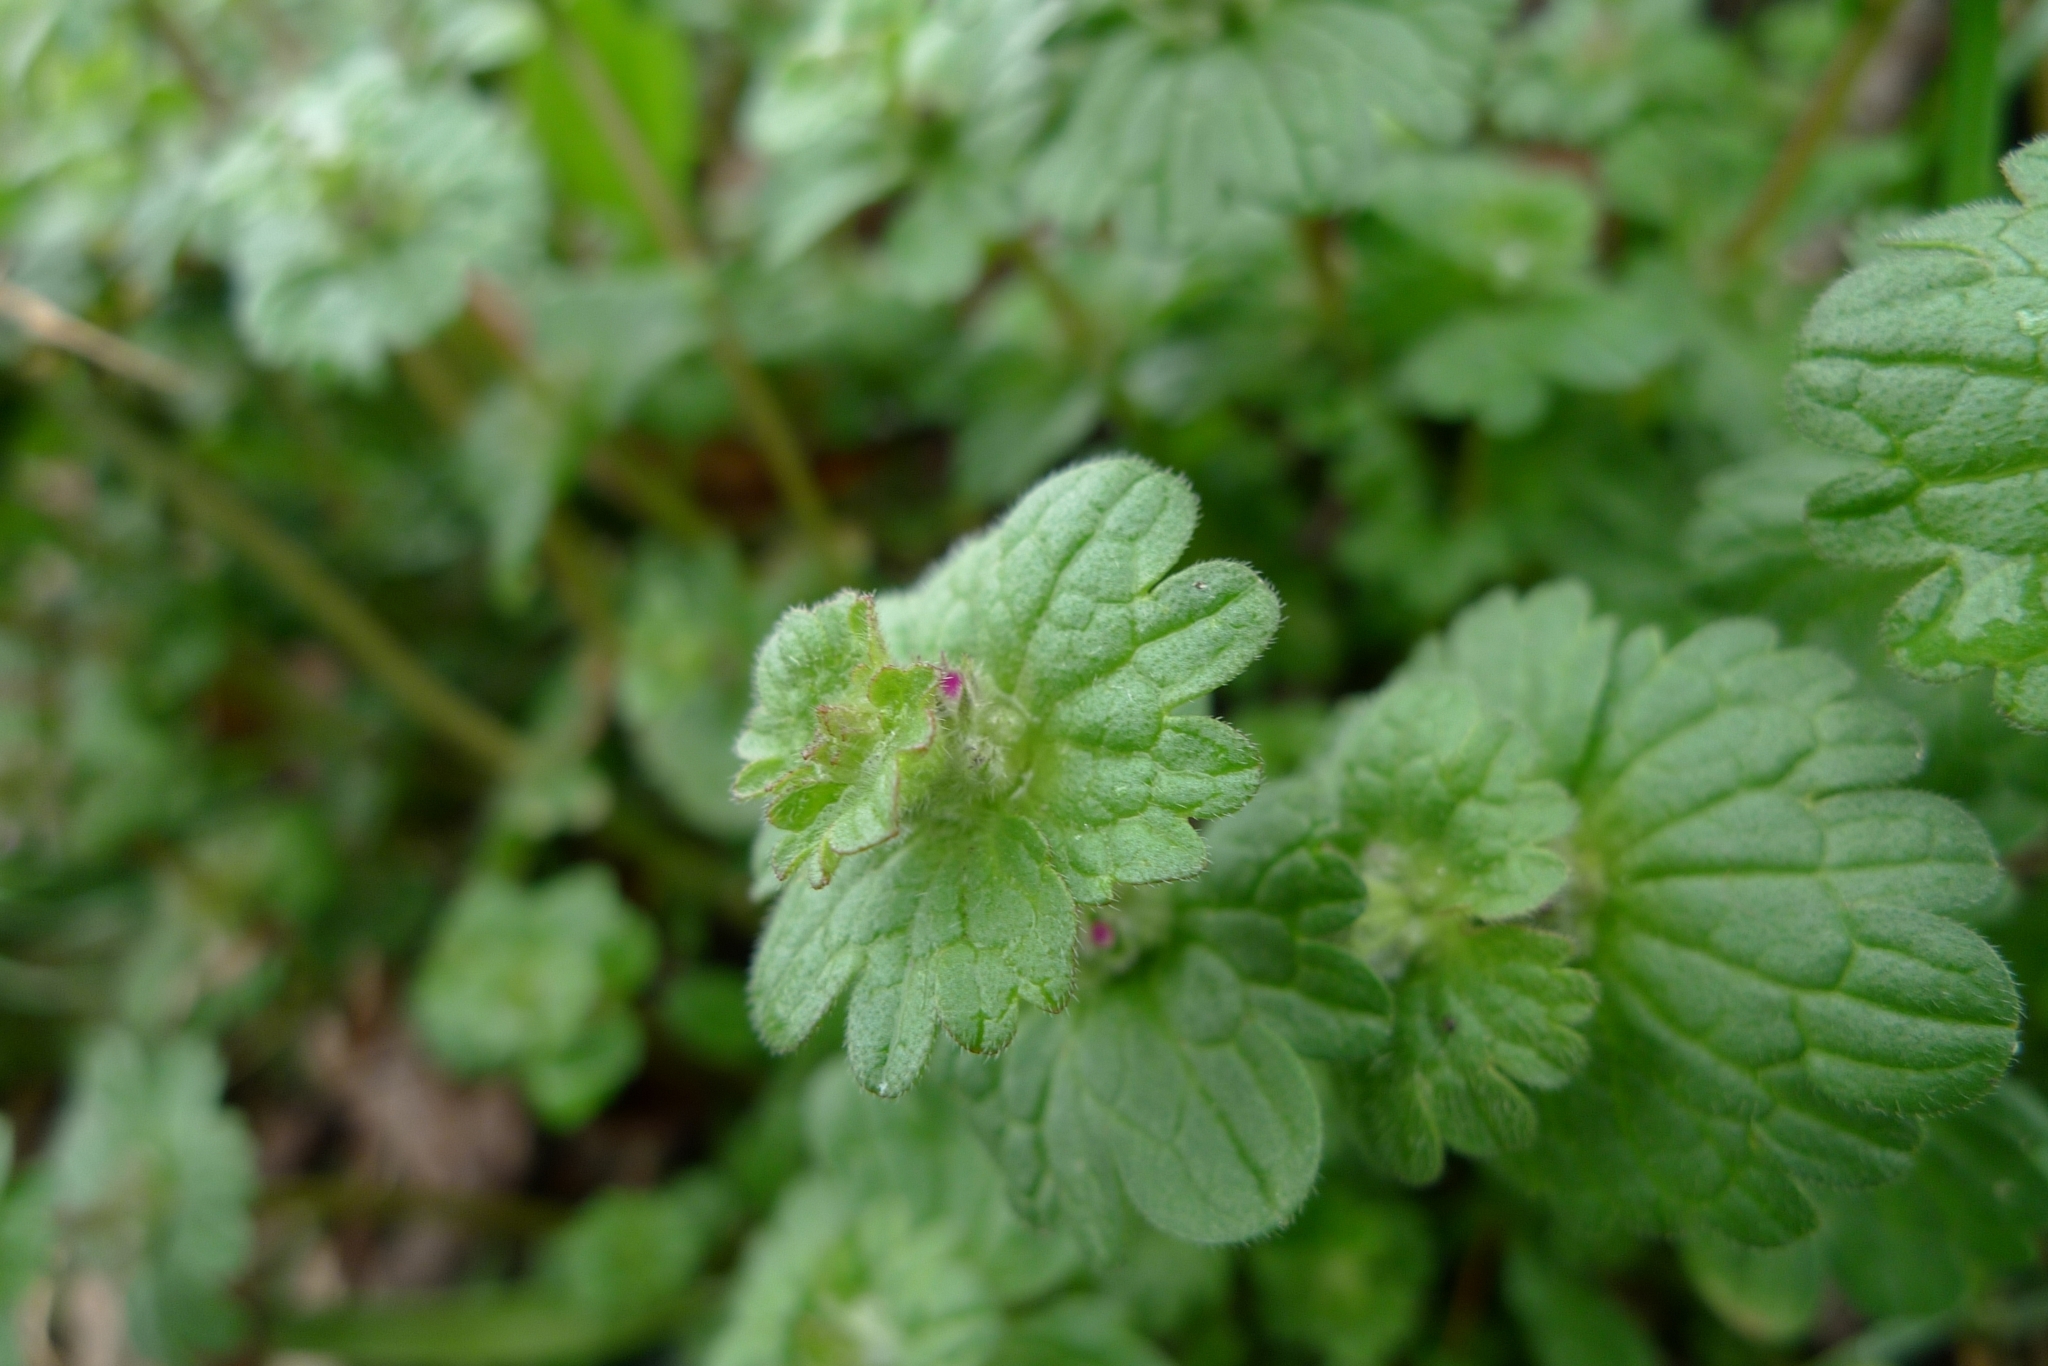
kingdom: Plantae
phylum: Tracheophyta
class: Magnoliopsida
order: Lamiales
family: Lamiaceae
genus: Lamium
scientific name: Lamium amplexicaule
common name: Henbit dead-nettle
